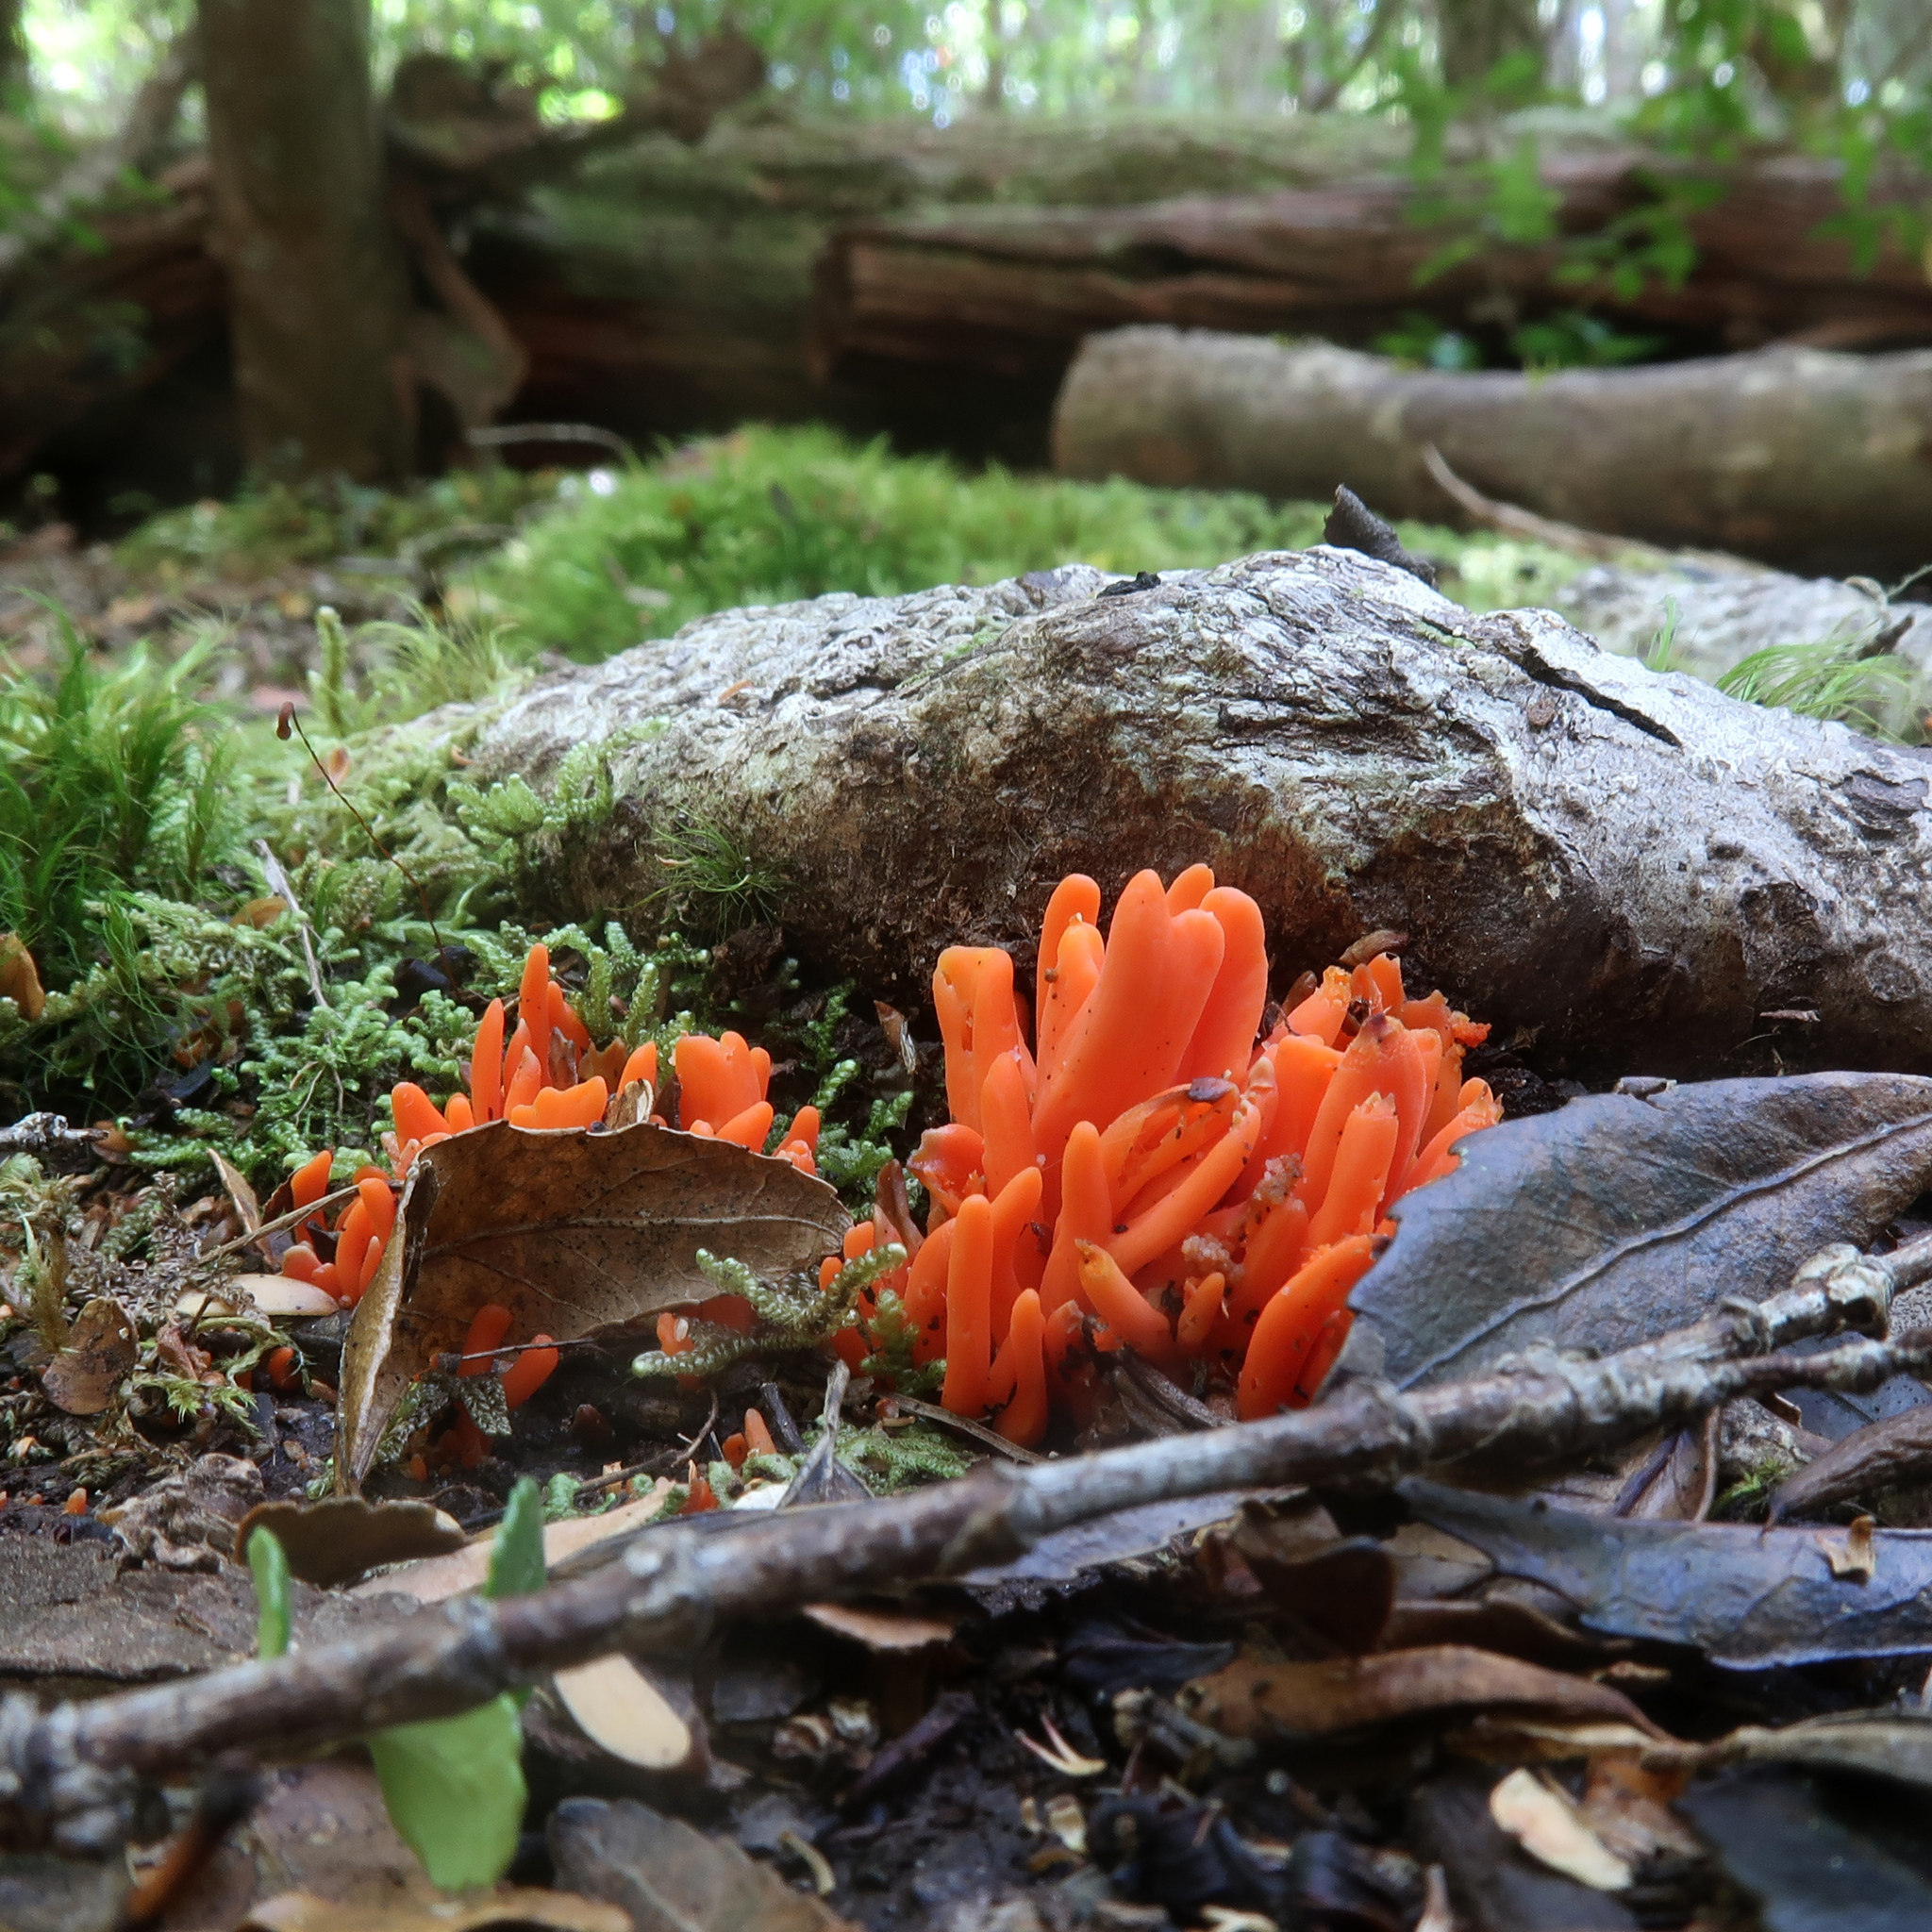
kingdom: Fungi
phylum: Basidiomycota
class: Agaricomycetes
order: Agaricales
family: Clavariaceae
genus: Clavulinopsis
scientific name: Clavulinopsis sulcata
